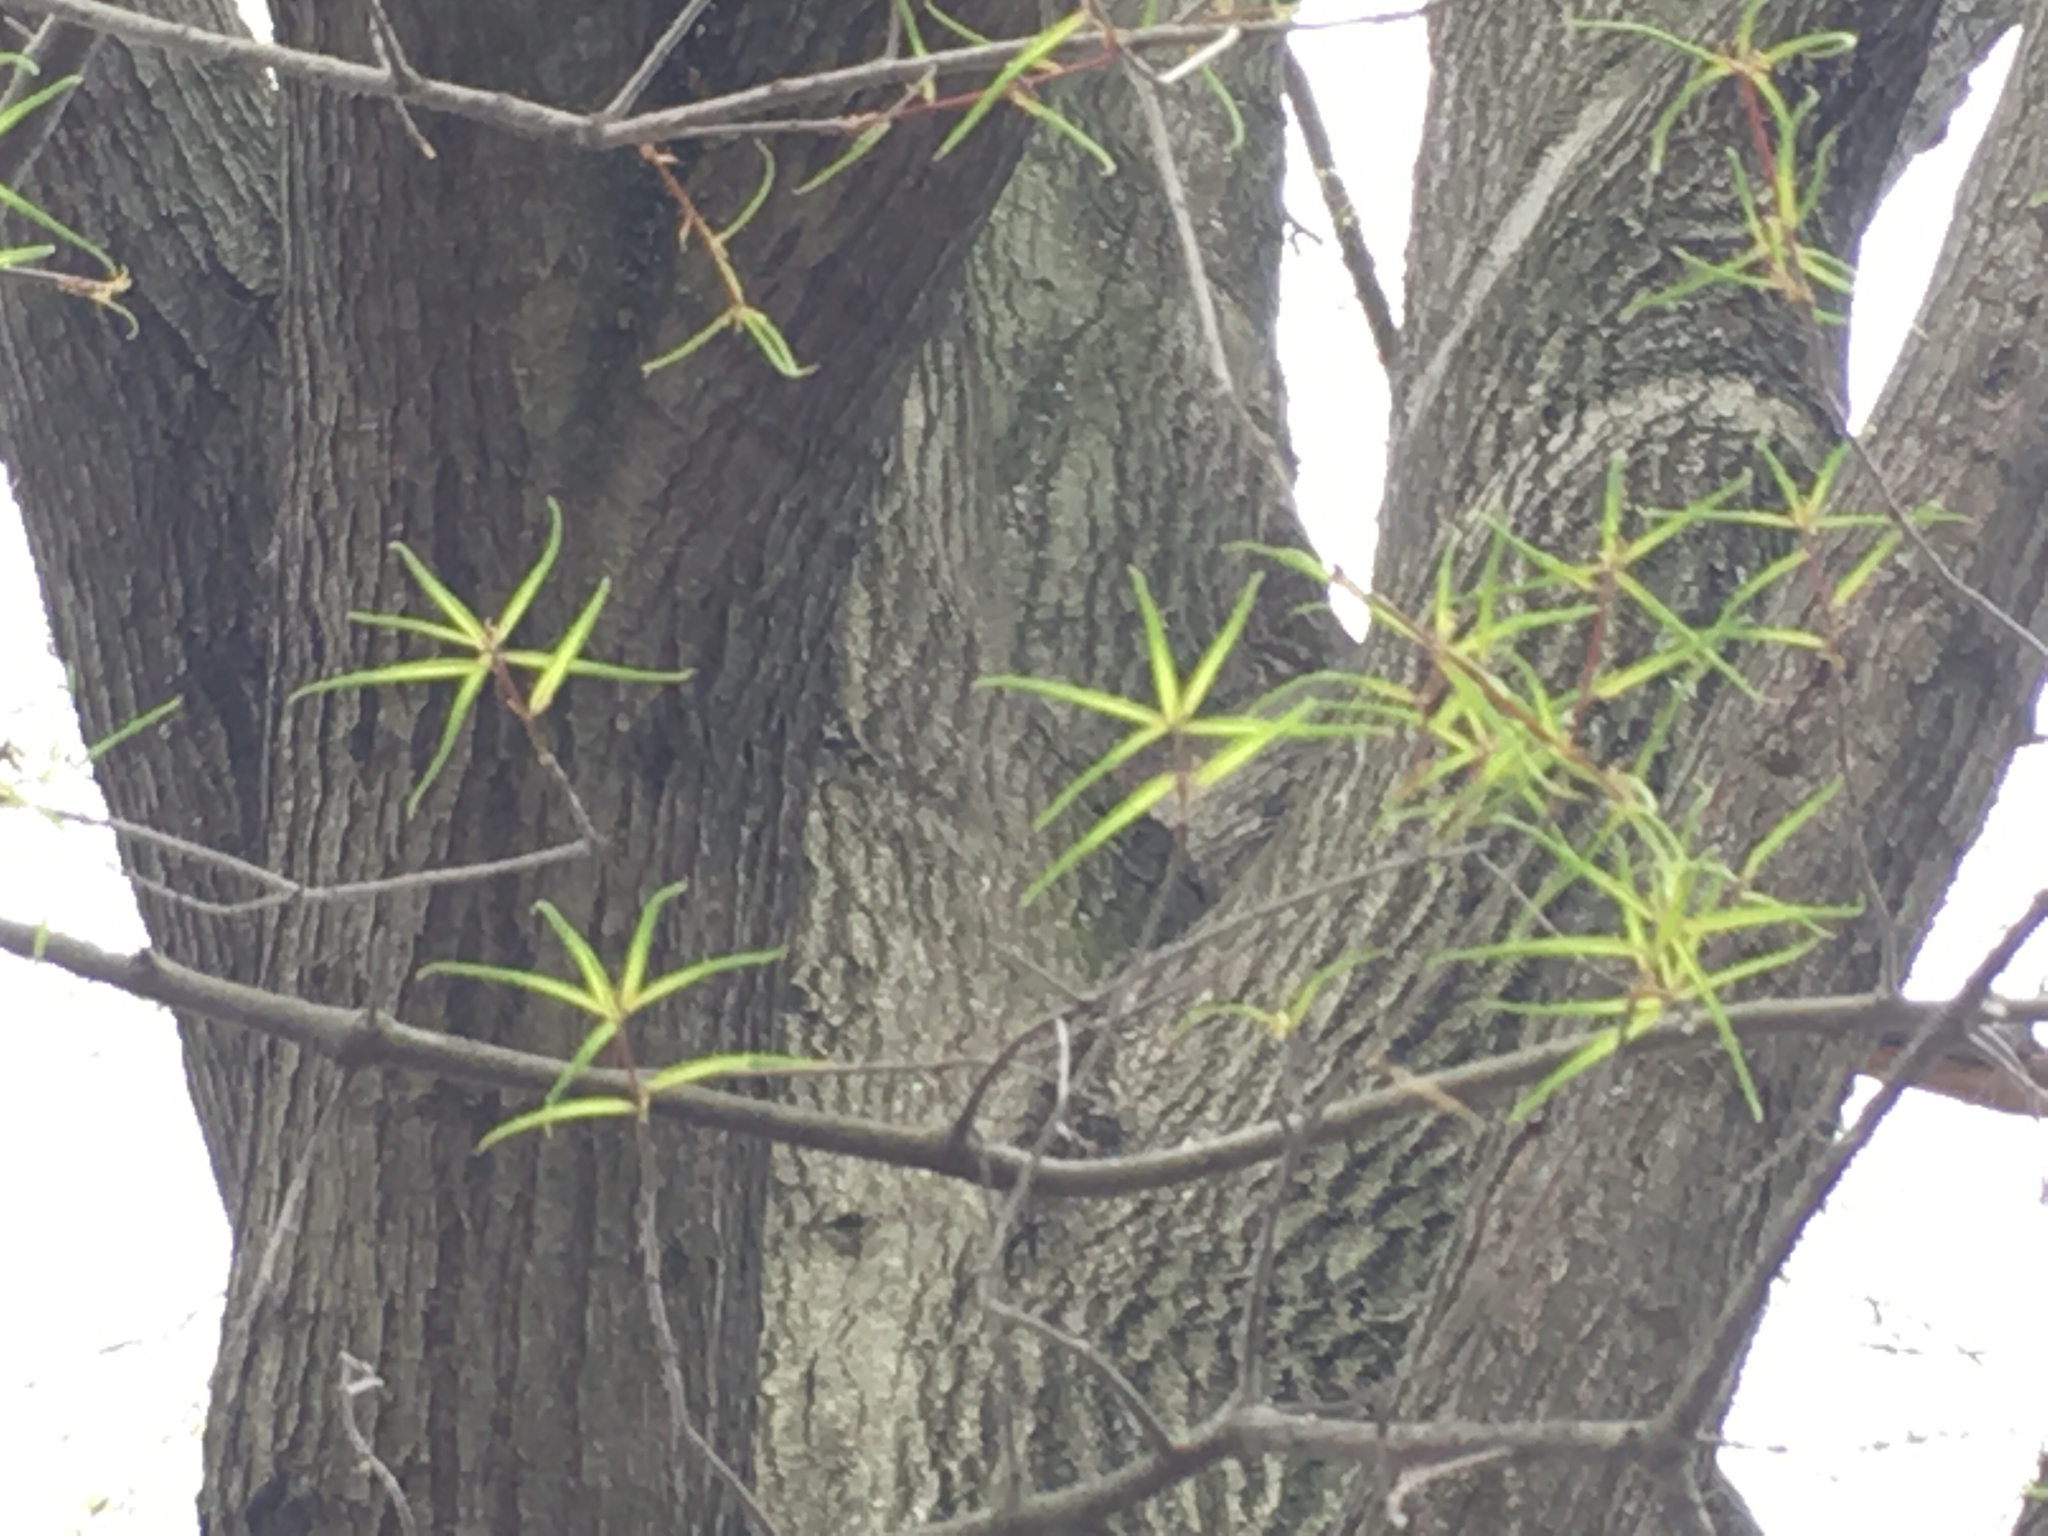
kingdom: Plantae
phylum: Tracheophyta
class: Magnoliopsida
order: Fagales
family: Fagaceae
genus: Quercus
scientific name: Quercus phellos
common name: Willow oak
